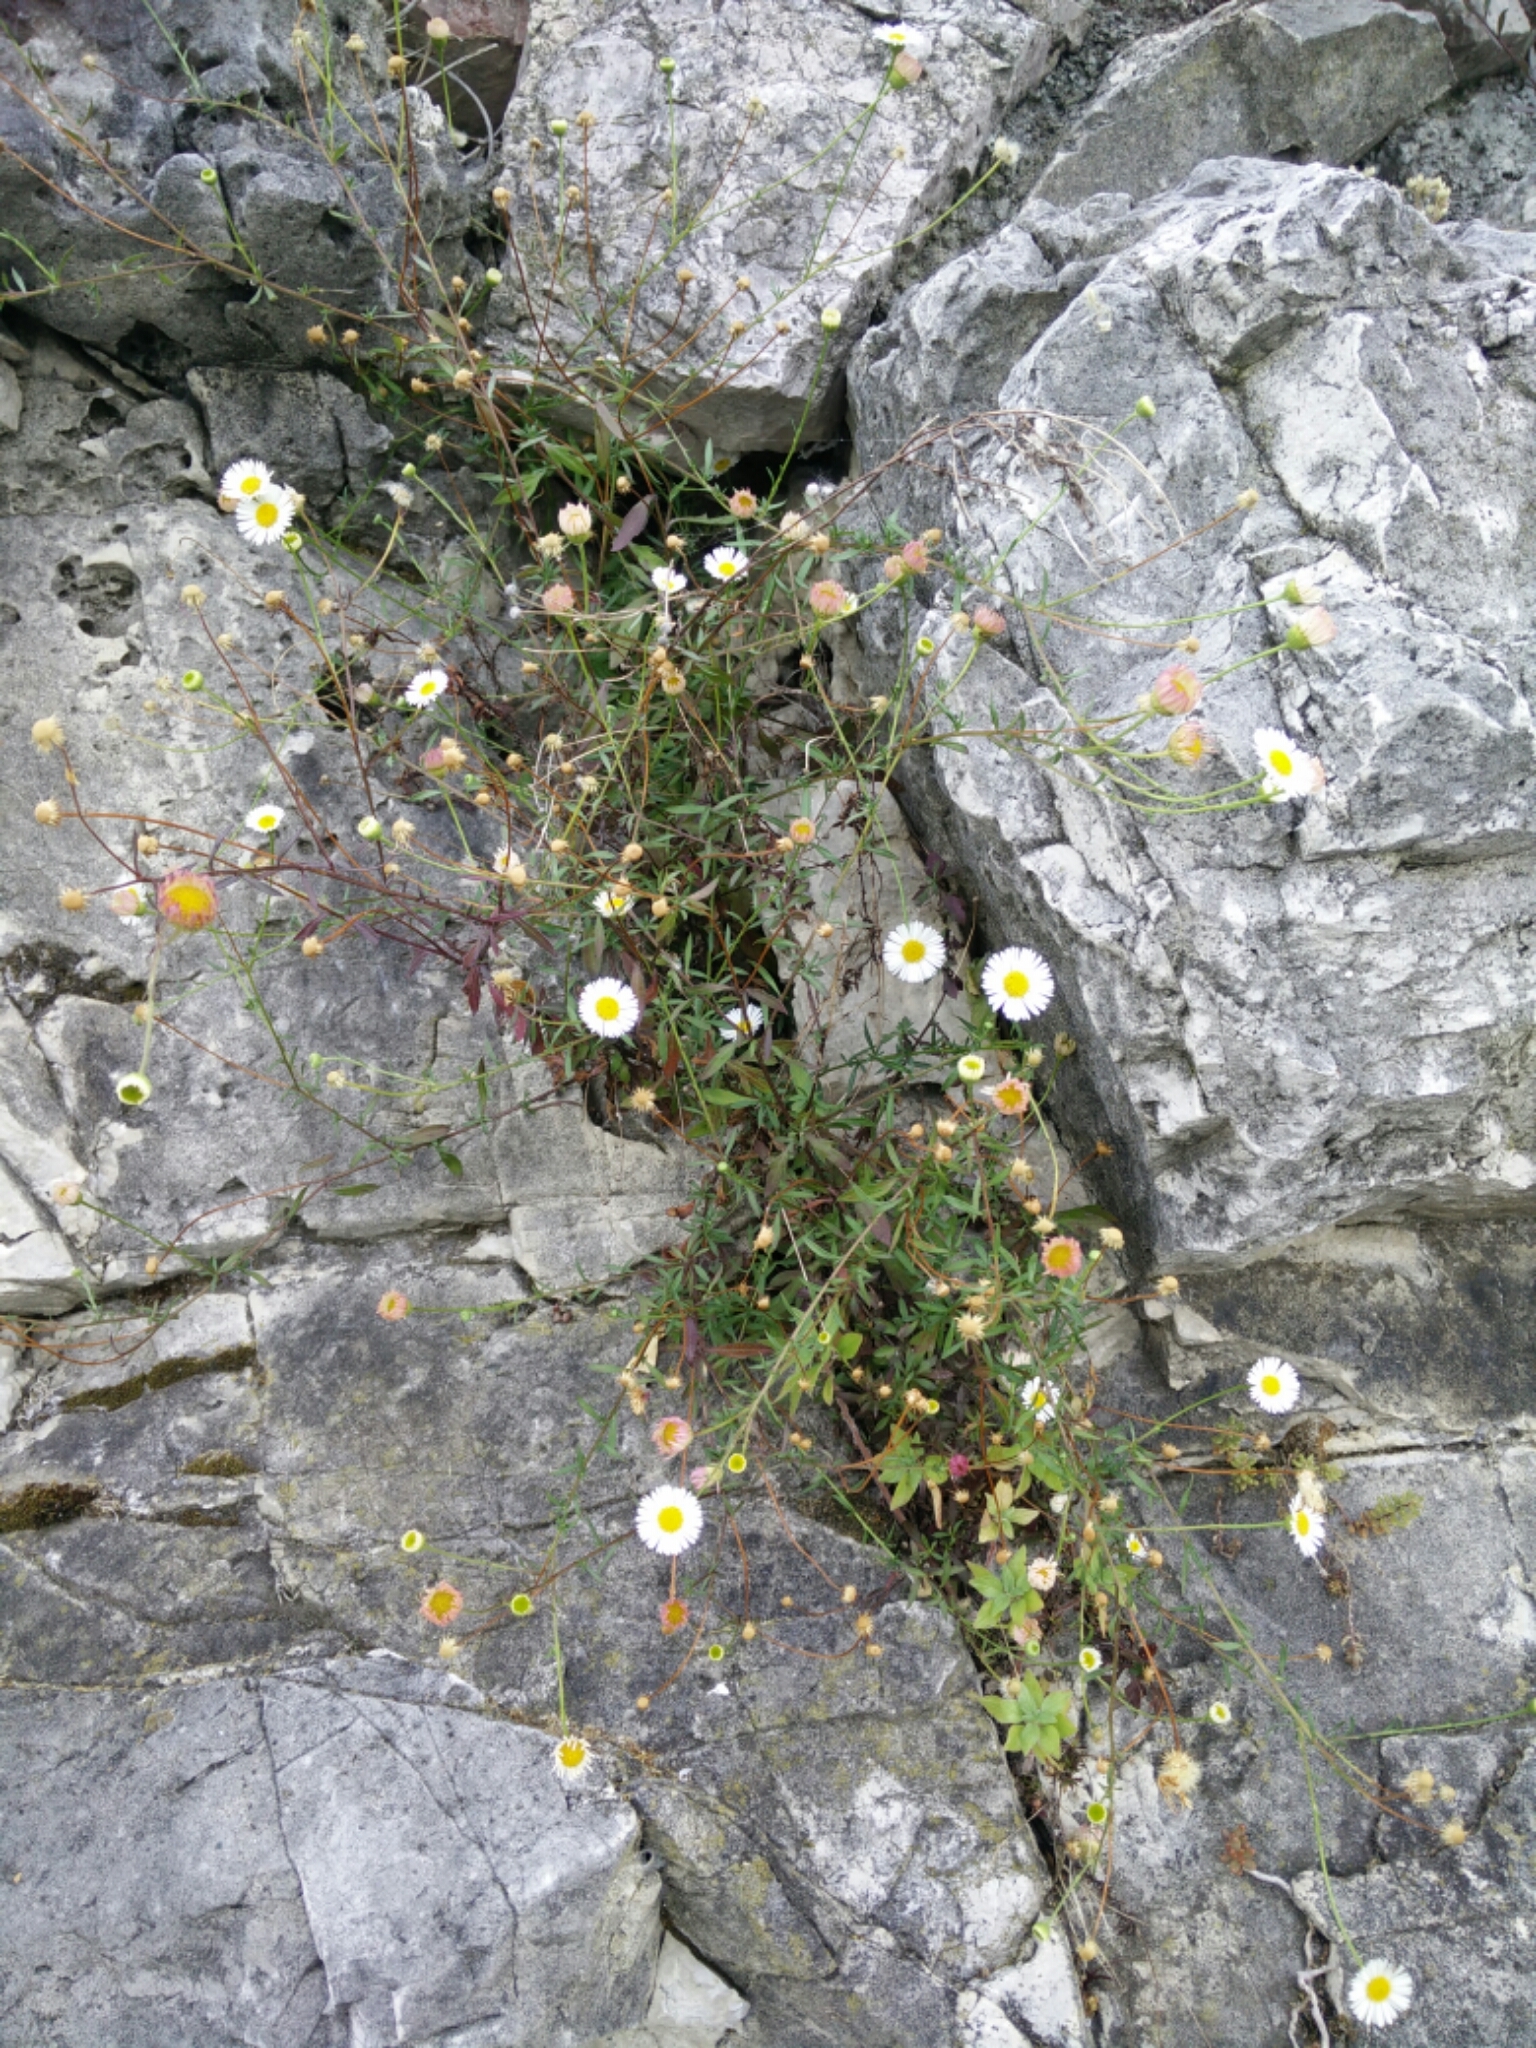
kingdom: Plantae
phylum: Tracheophyta
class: Magnoliopsida
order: Asterales
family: Asteraceae
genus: Erigeron
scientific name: Erigeron karvinskianus
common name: Mexican fleabane
